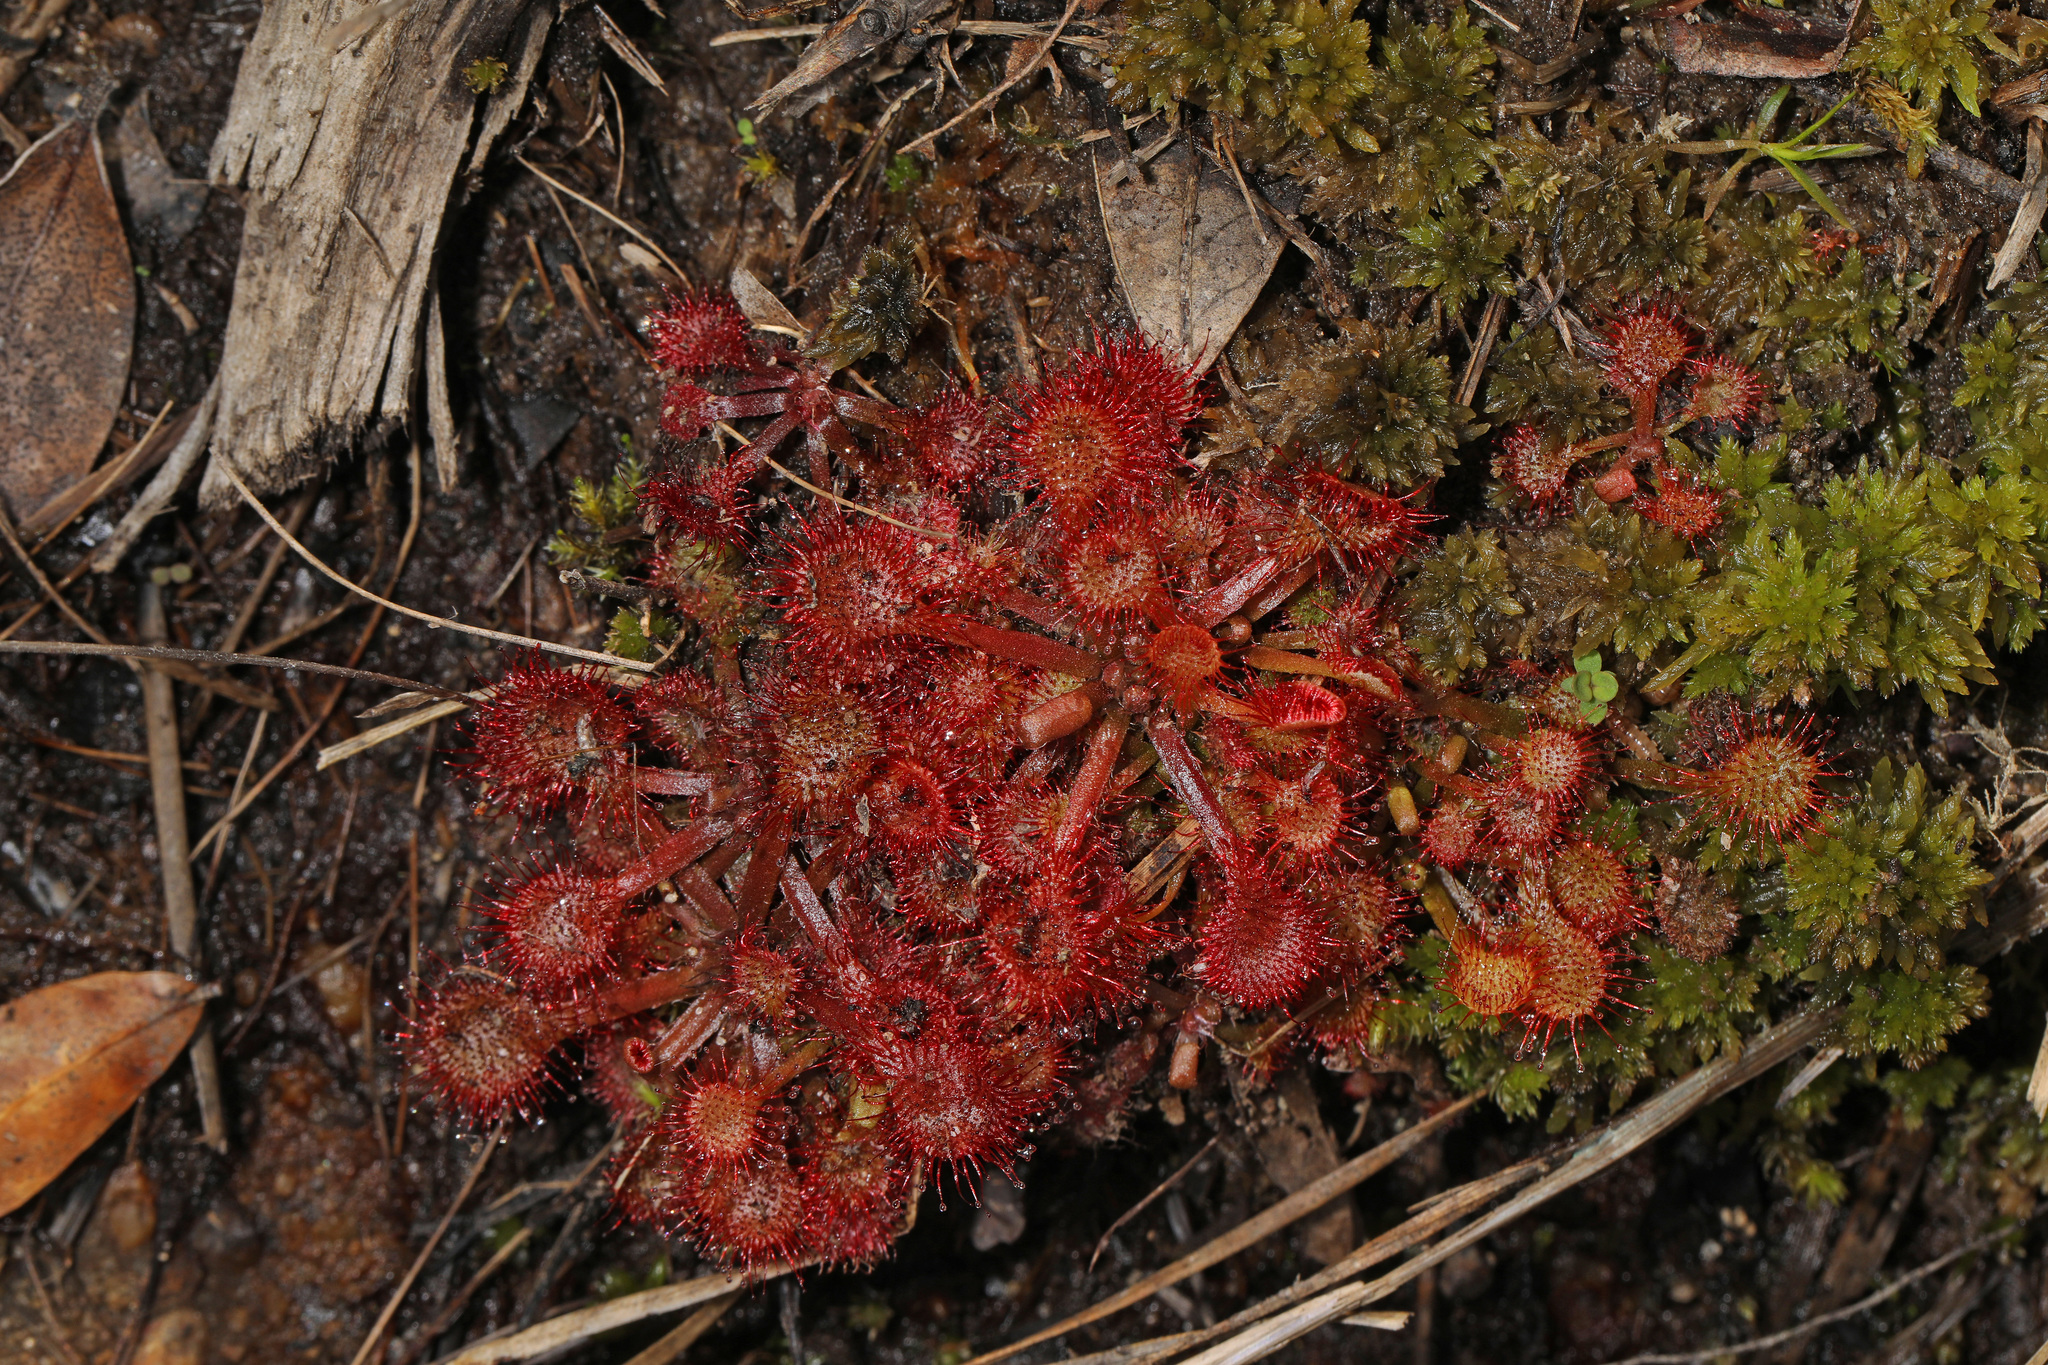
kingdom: Plantae
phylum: Tracheophyta
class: Magnoliopsida
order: Caryophyllales
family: Droseraceae
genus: Drosera
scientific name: Drosera capillaris
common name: Pink sundew
